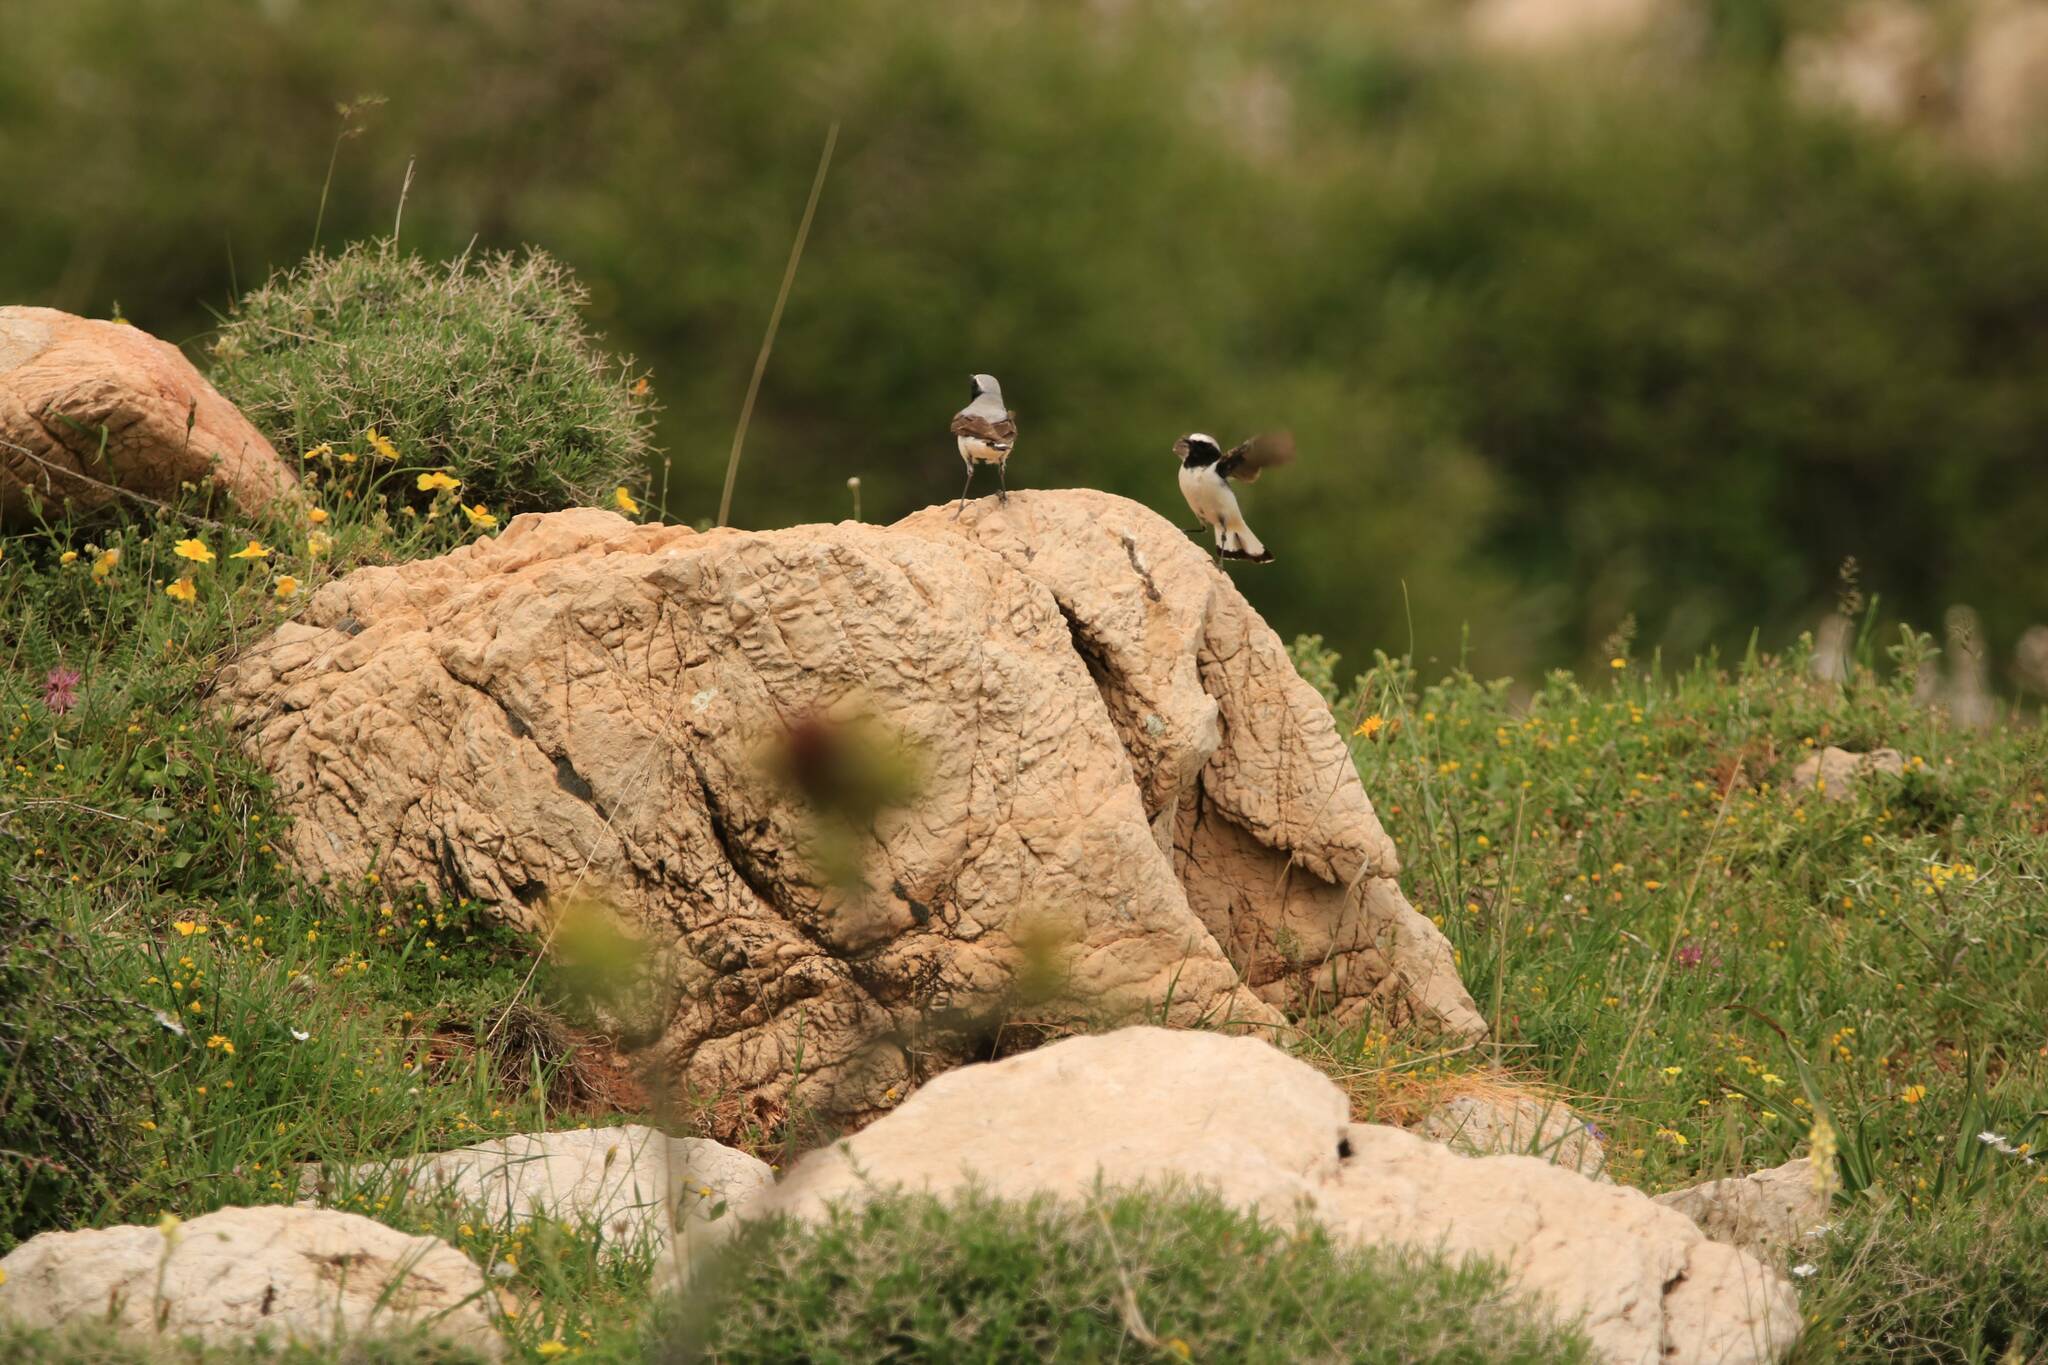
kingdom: Animalia
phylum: Chordata
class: Aves
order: Passeriformes
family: Muscicapidae
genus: Oenanthe
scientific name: Oenanthe oenanthe
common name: Northern wheatear
